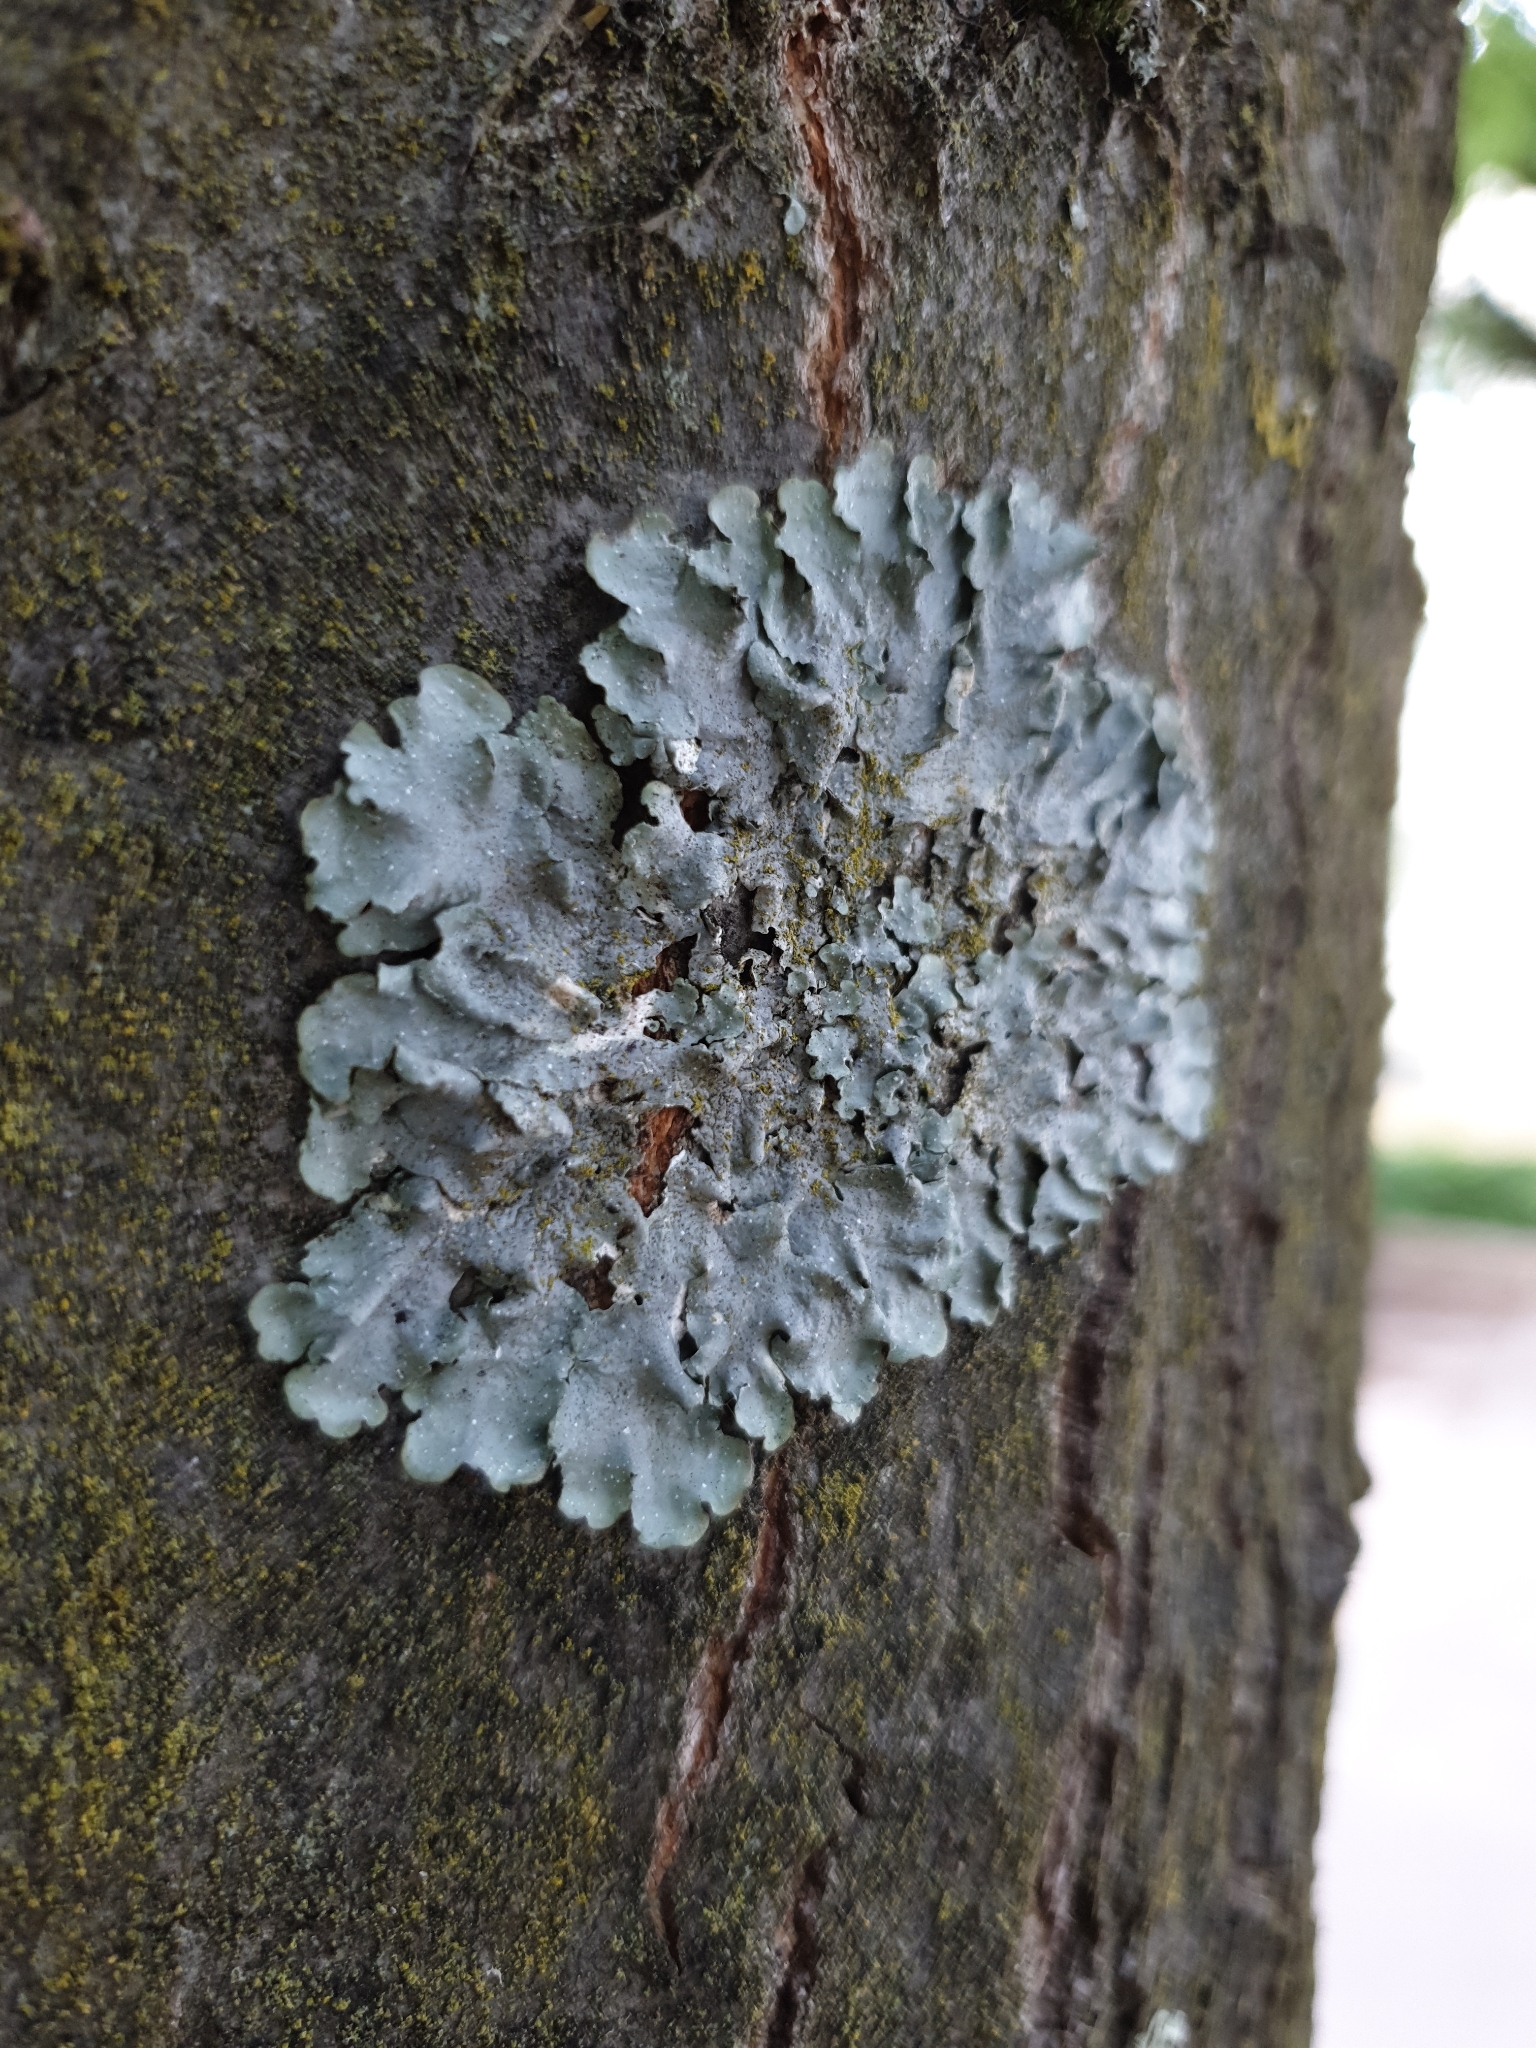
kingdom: Fungi
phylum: Ascomycota
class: Lecanoromycetes
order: Lecanorales
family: Parmeliaceae
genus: Punctelia
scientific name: Punctelia
